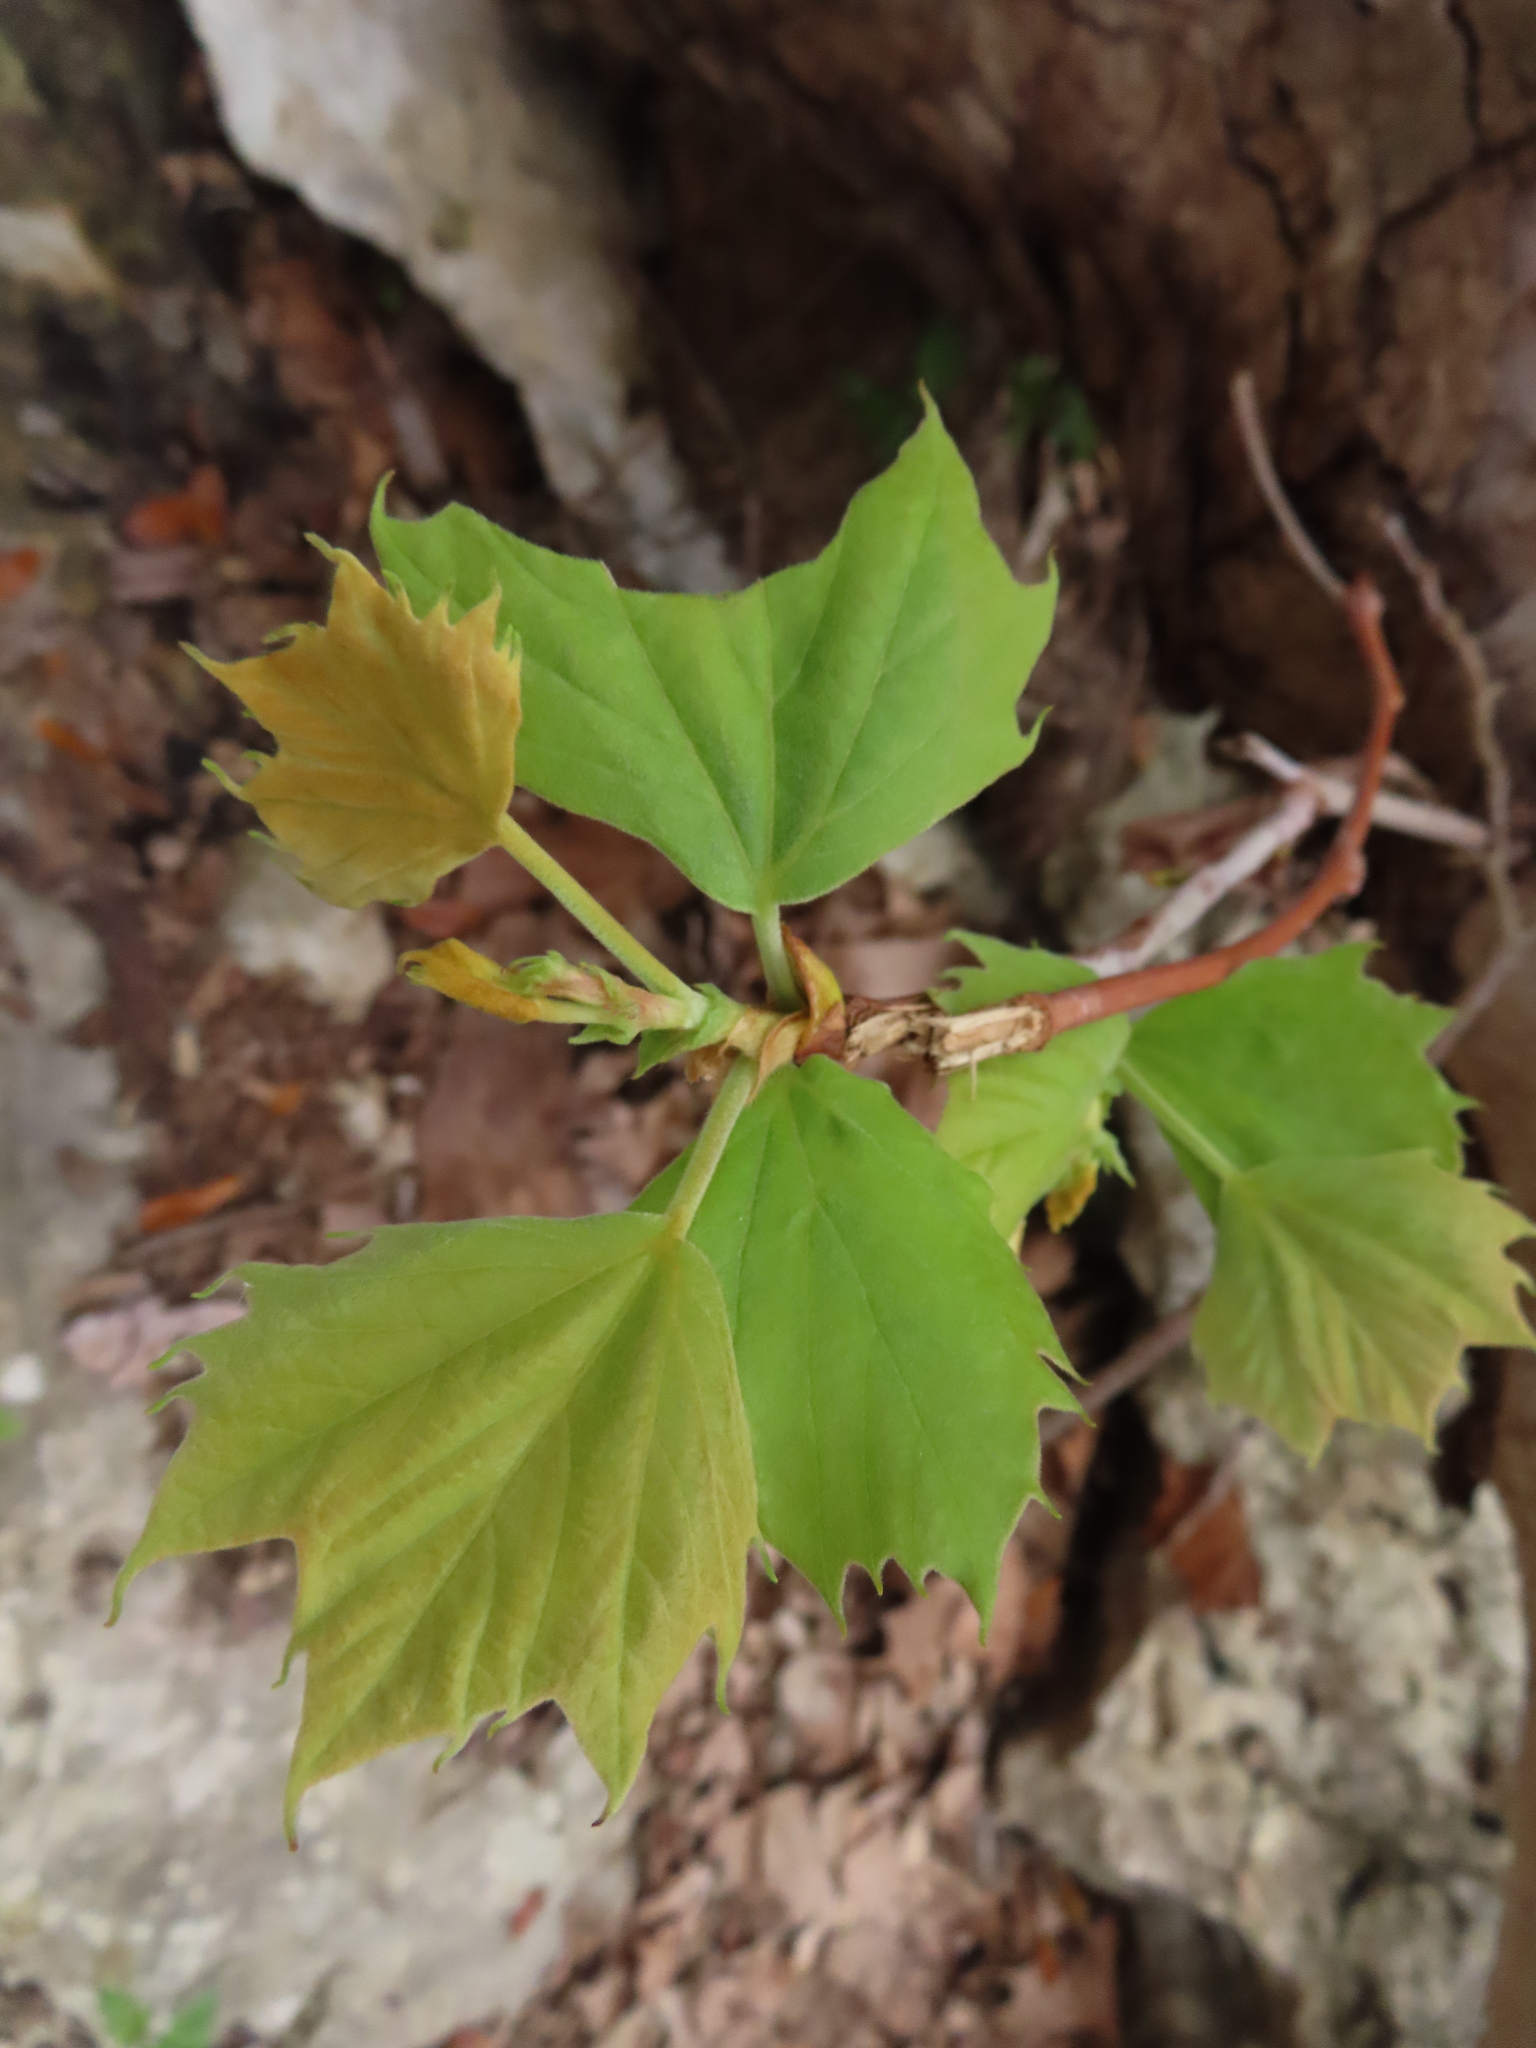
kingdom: Plantae
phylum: Tracheophyta
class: Magnoliopsida
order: Proteales
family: Platanaceae
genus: Platanus
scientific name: Platanus occidentalis
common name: American sycamore
